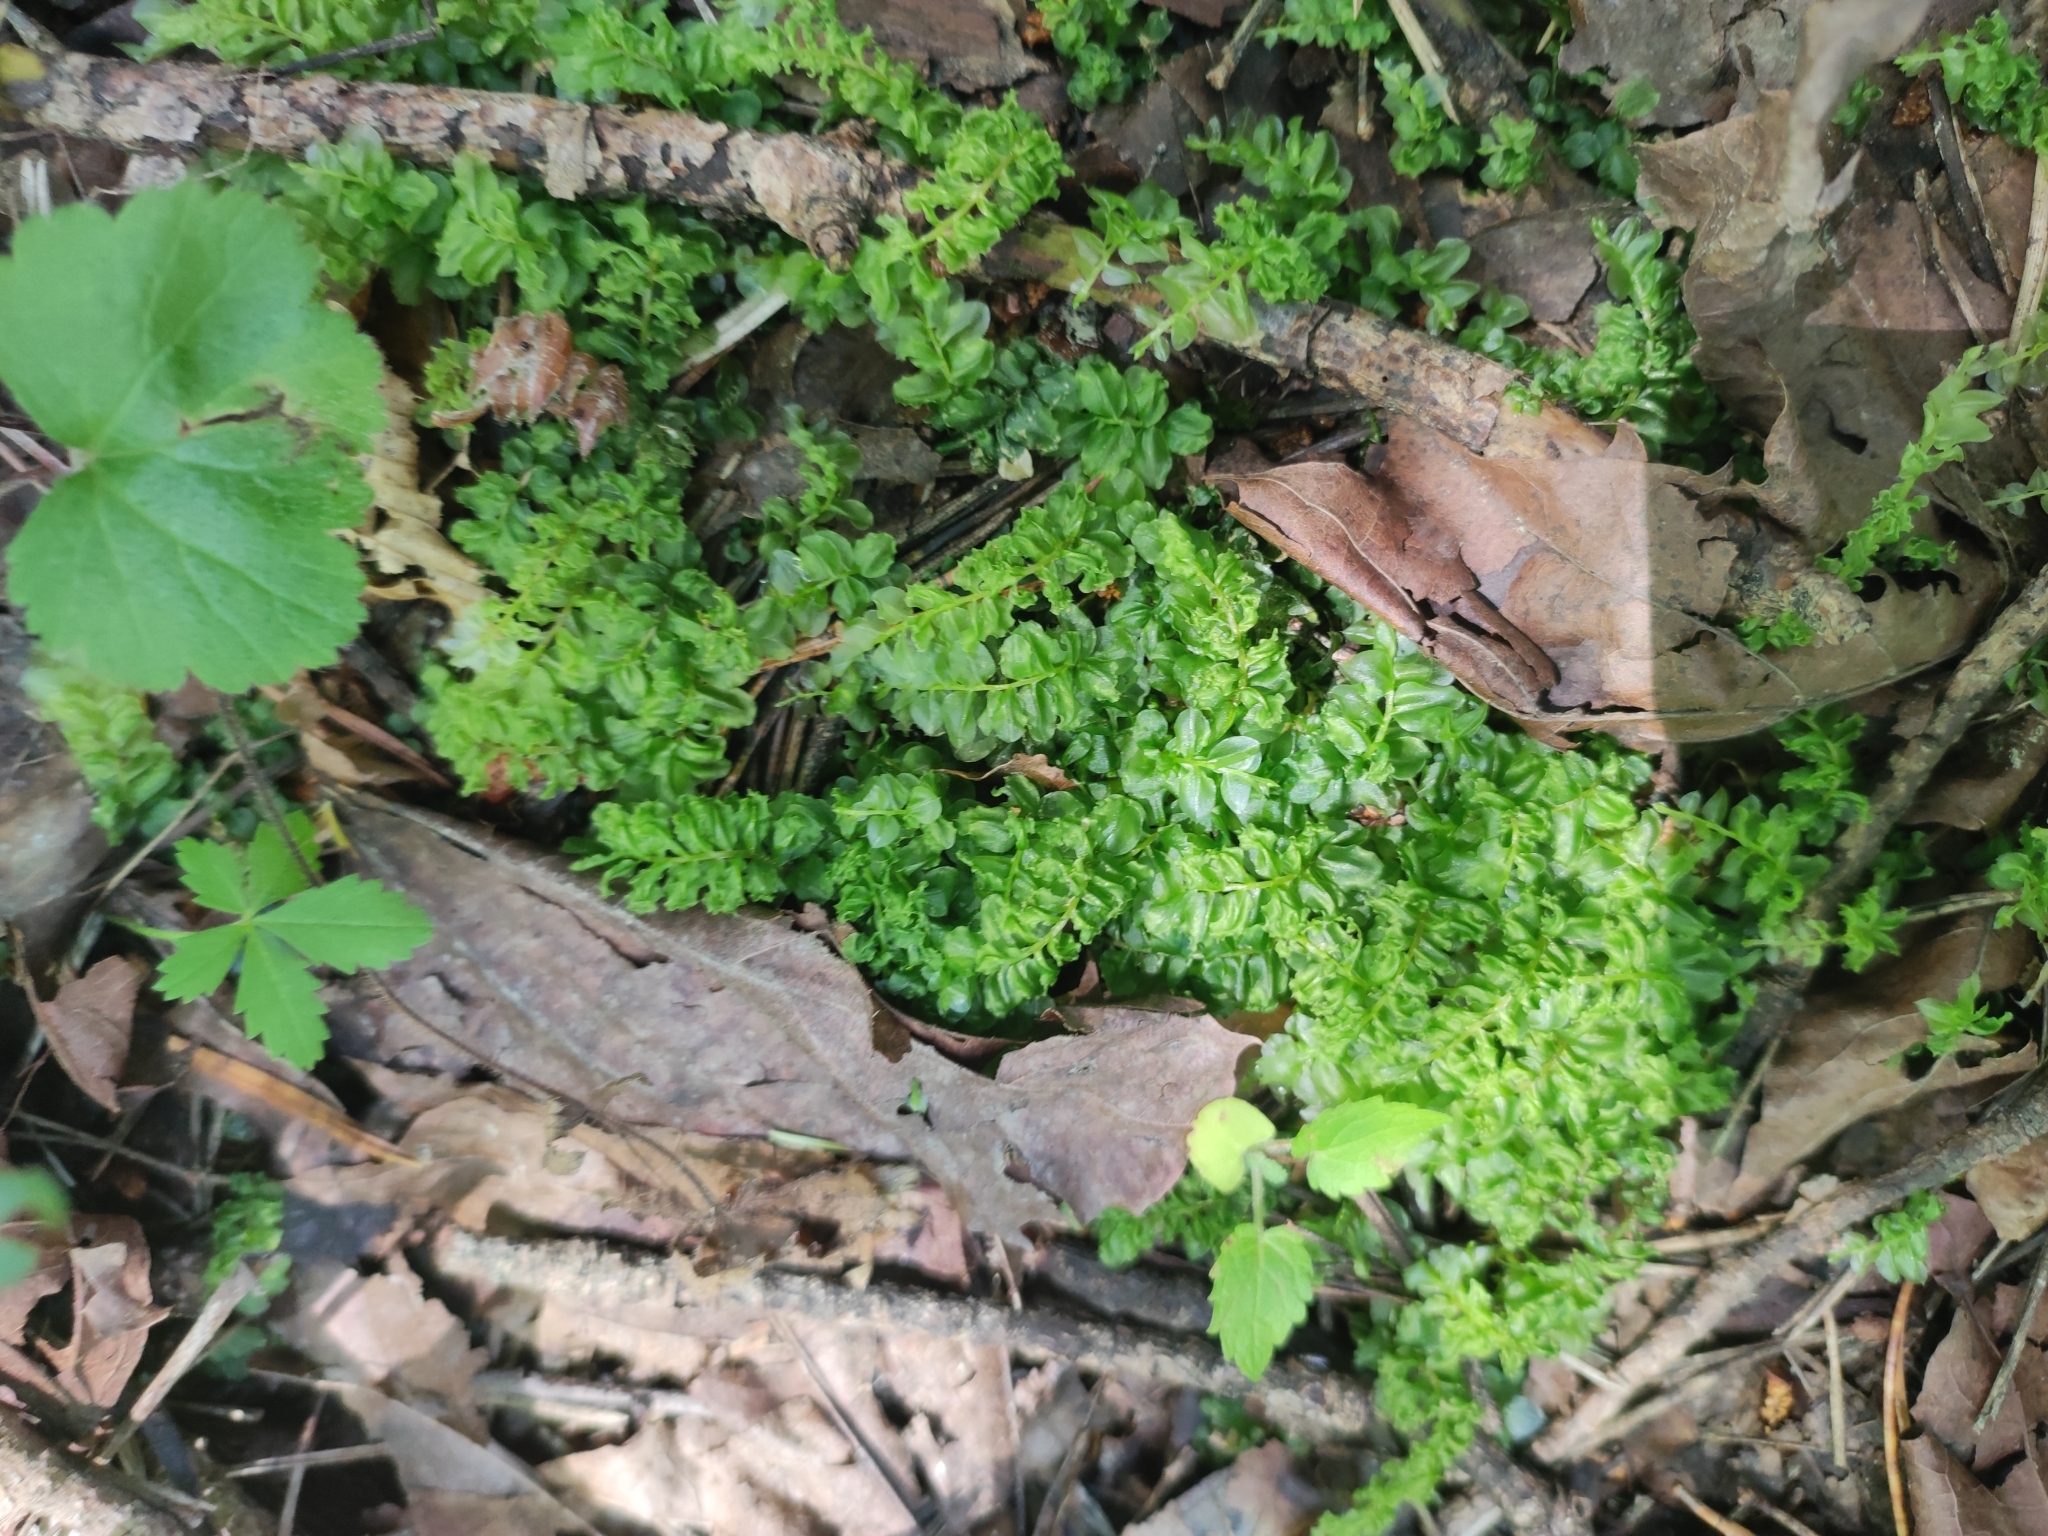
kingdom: Plantae
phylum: Bryophyta
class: Bryopsida
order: Bryales
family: Mniaceae
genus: Plagiomnium
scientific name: Plagiomnium affine
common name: Many-fruited thyme-moss
